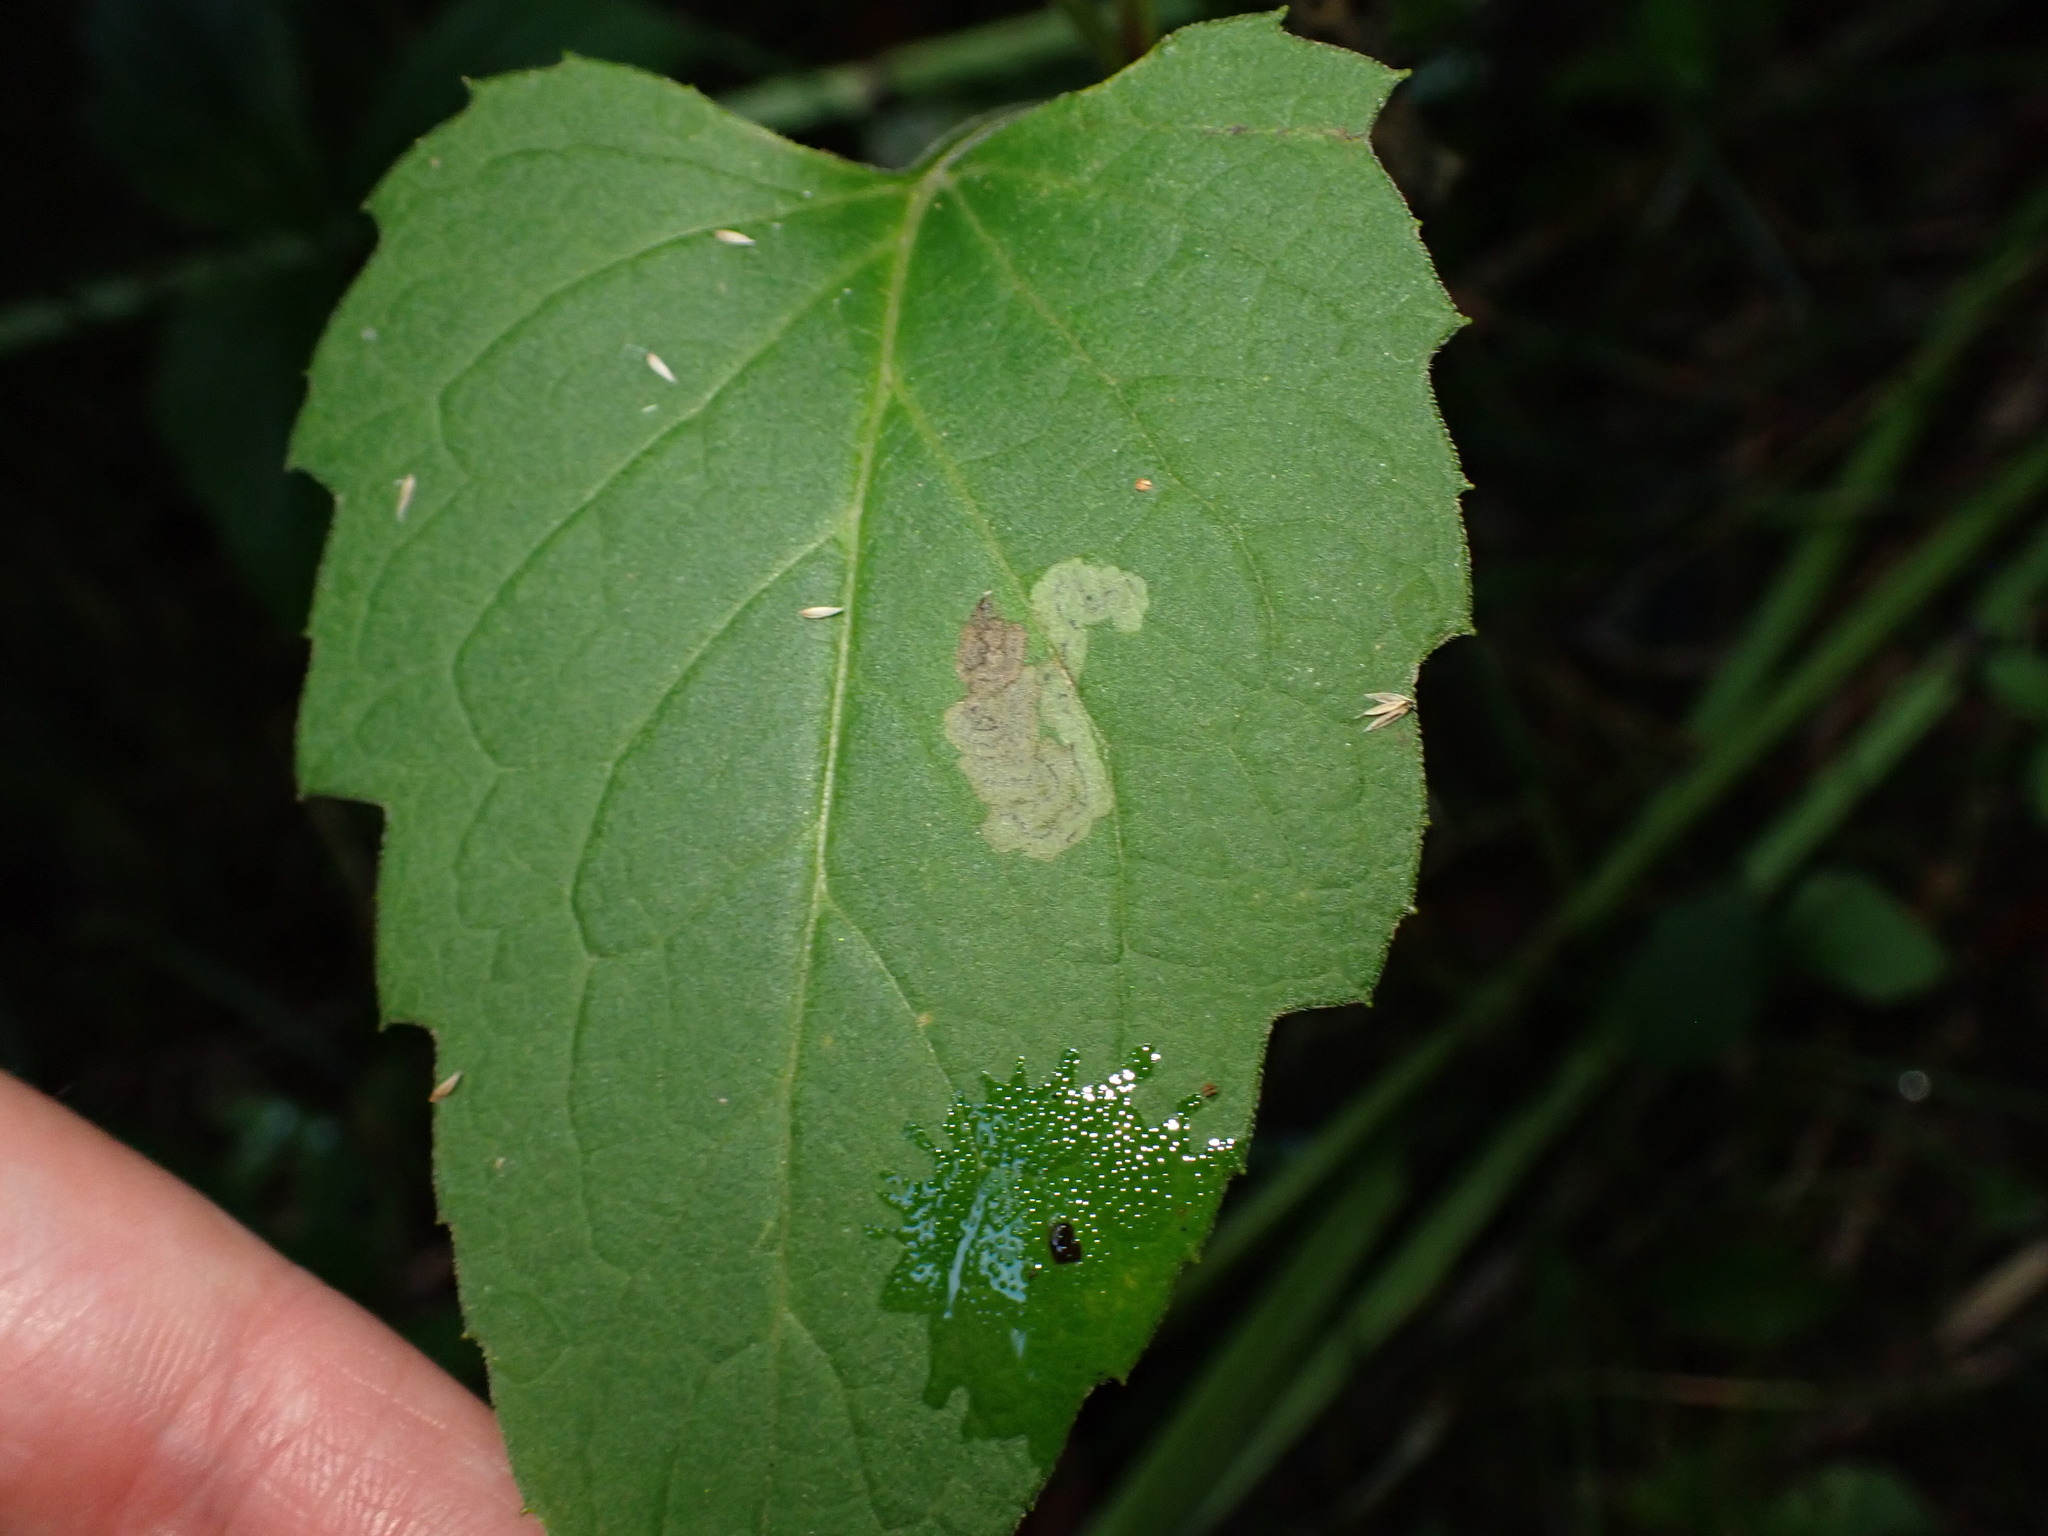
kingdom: Animalia
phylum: Arthropoda
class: Insecta
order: Diptera
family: Agromyzidae
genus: Liriomyza
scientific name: Liriomyza ivorcutleri
